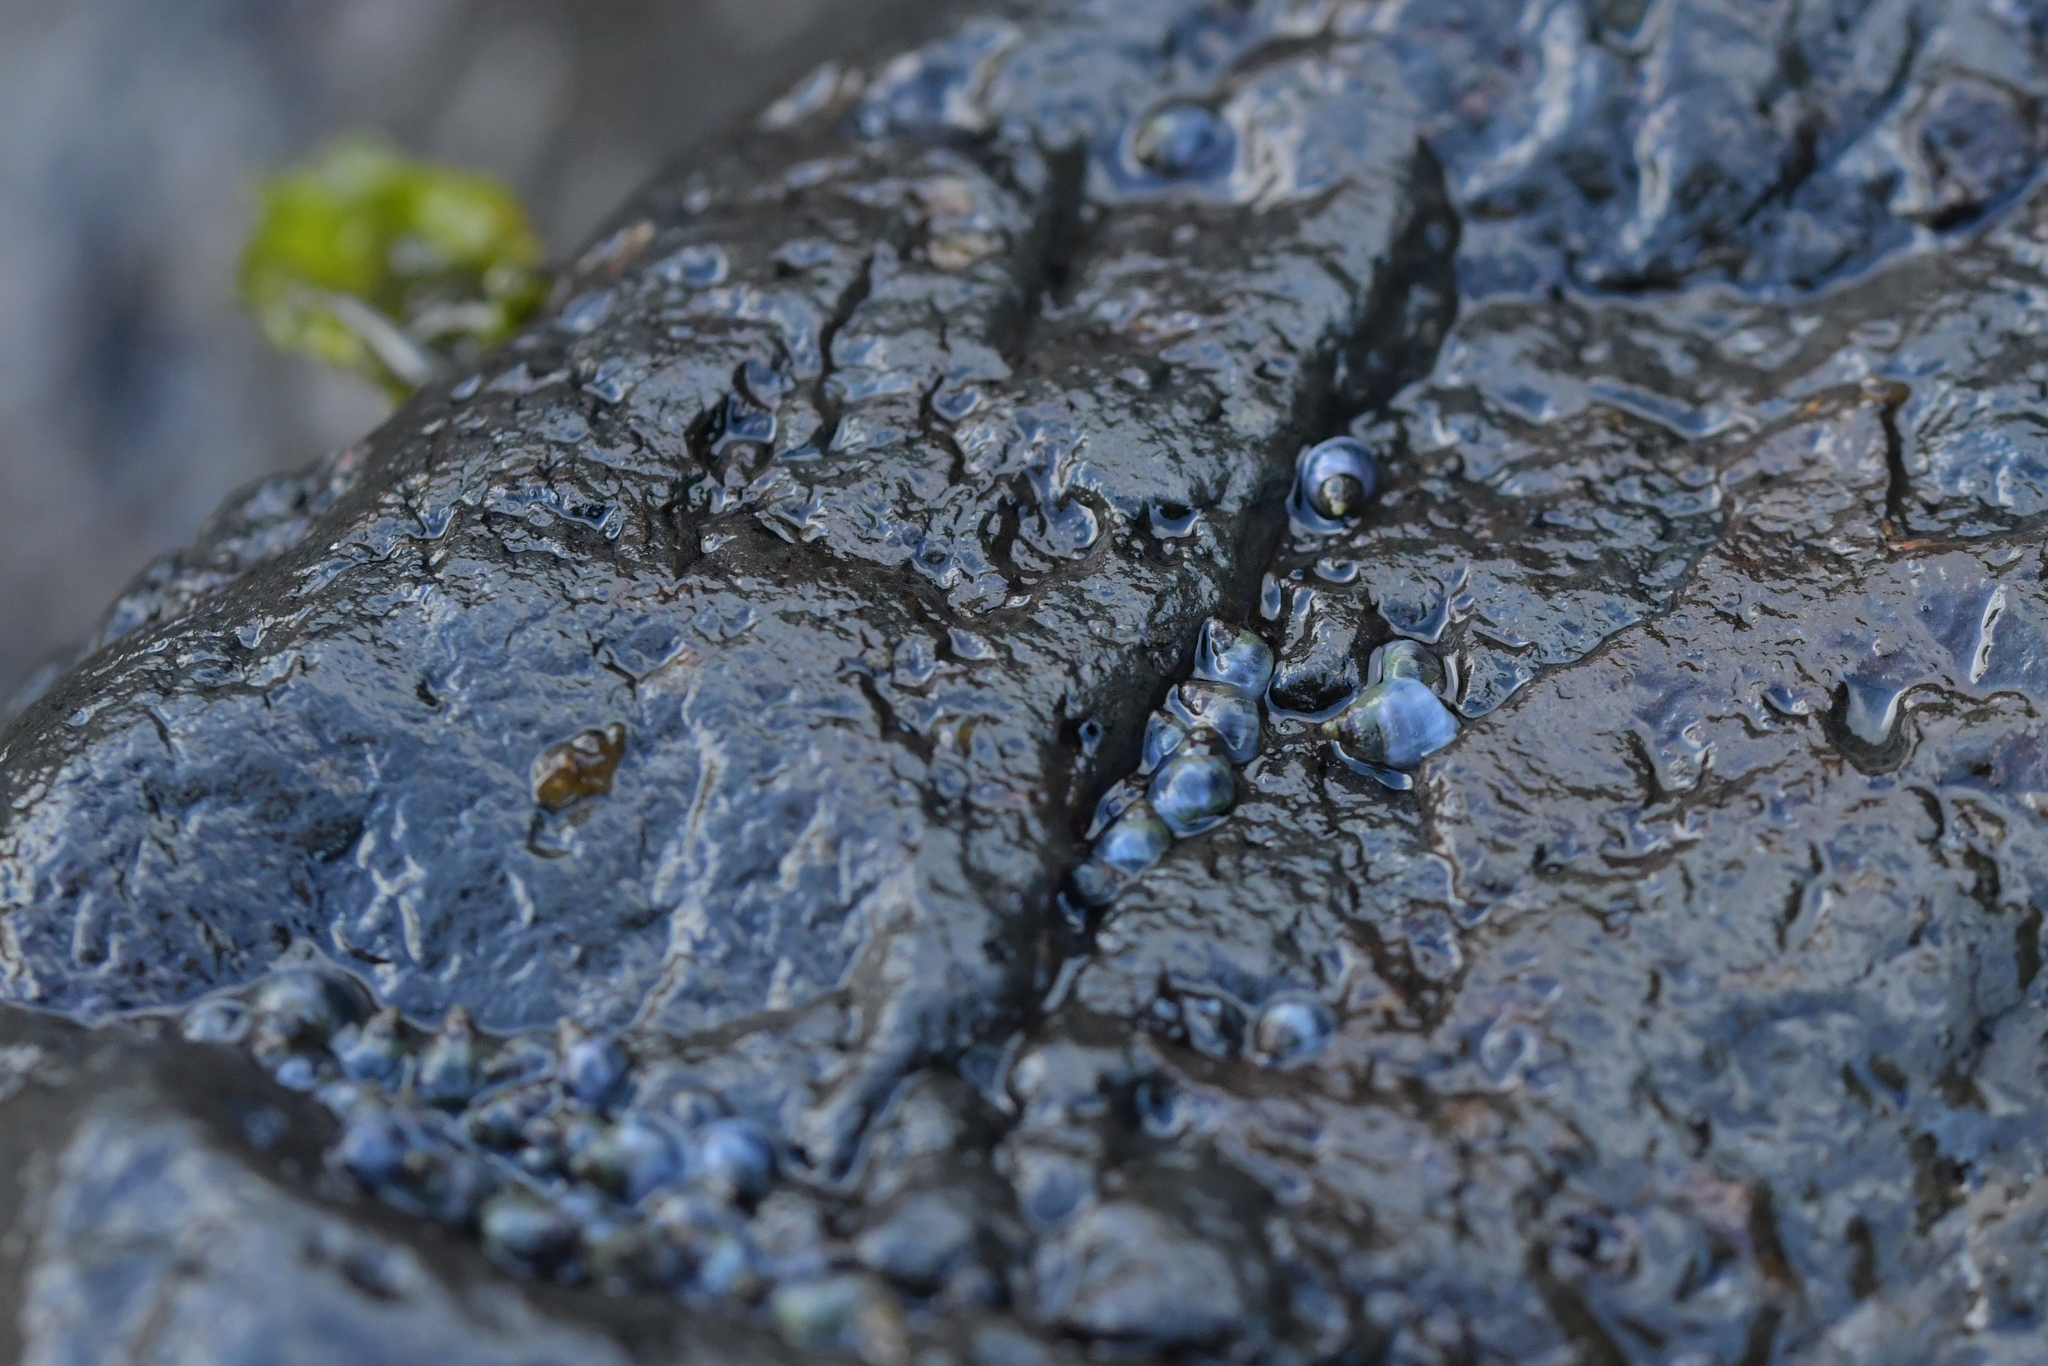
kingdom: Animalia
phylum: Mollusca
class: Gastropoda
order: Littorinimorpha
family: Littorinidae
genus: Austrolittorina
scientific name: Austrolittorina antipodum
